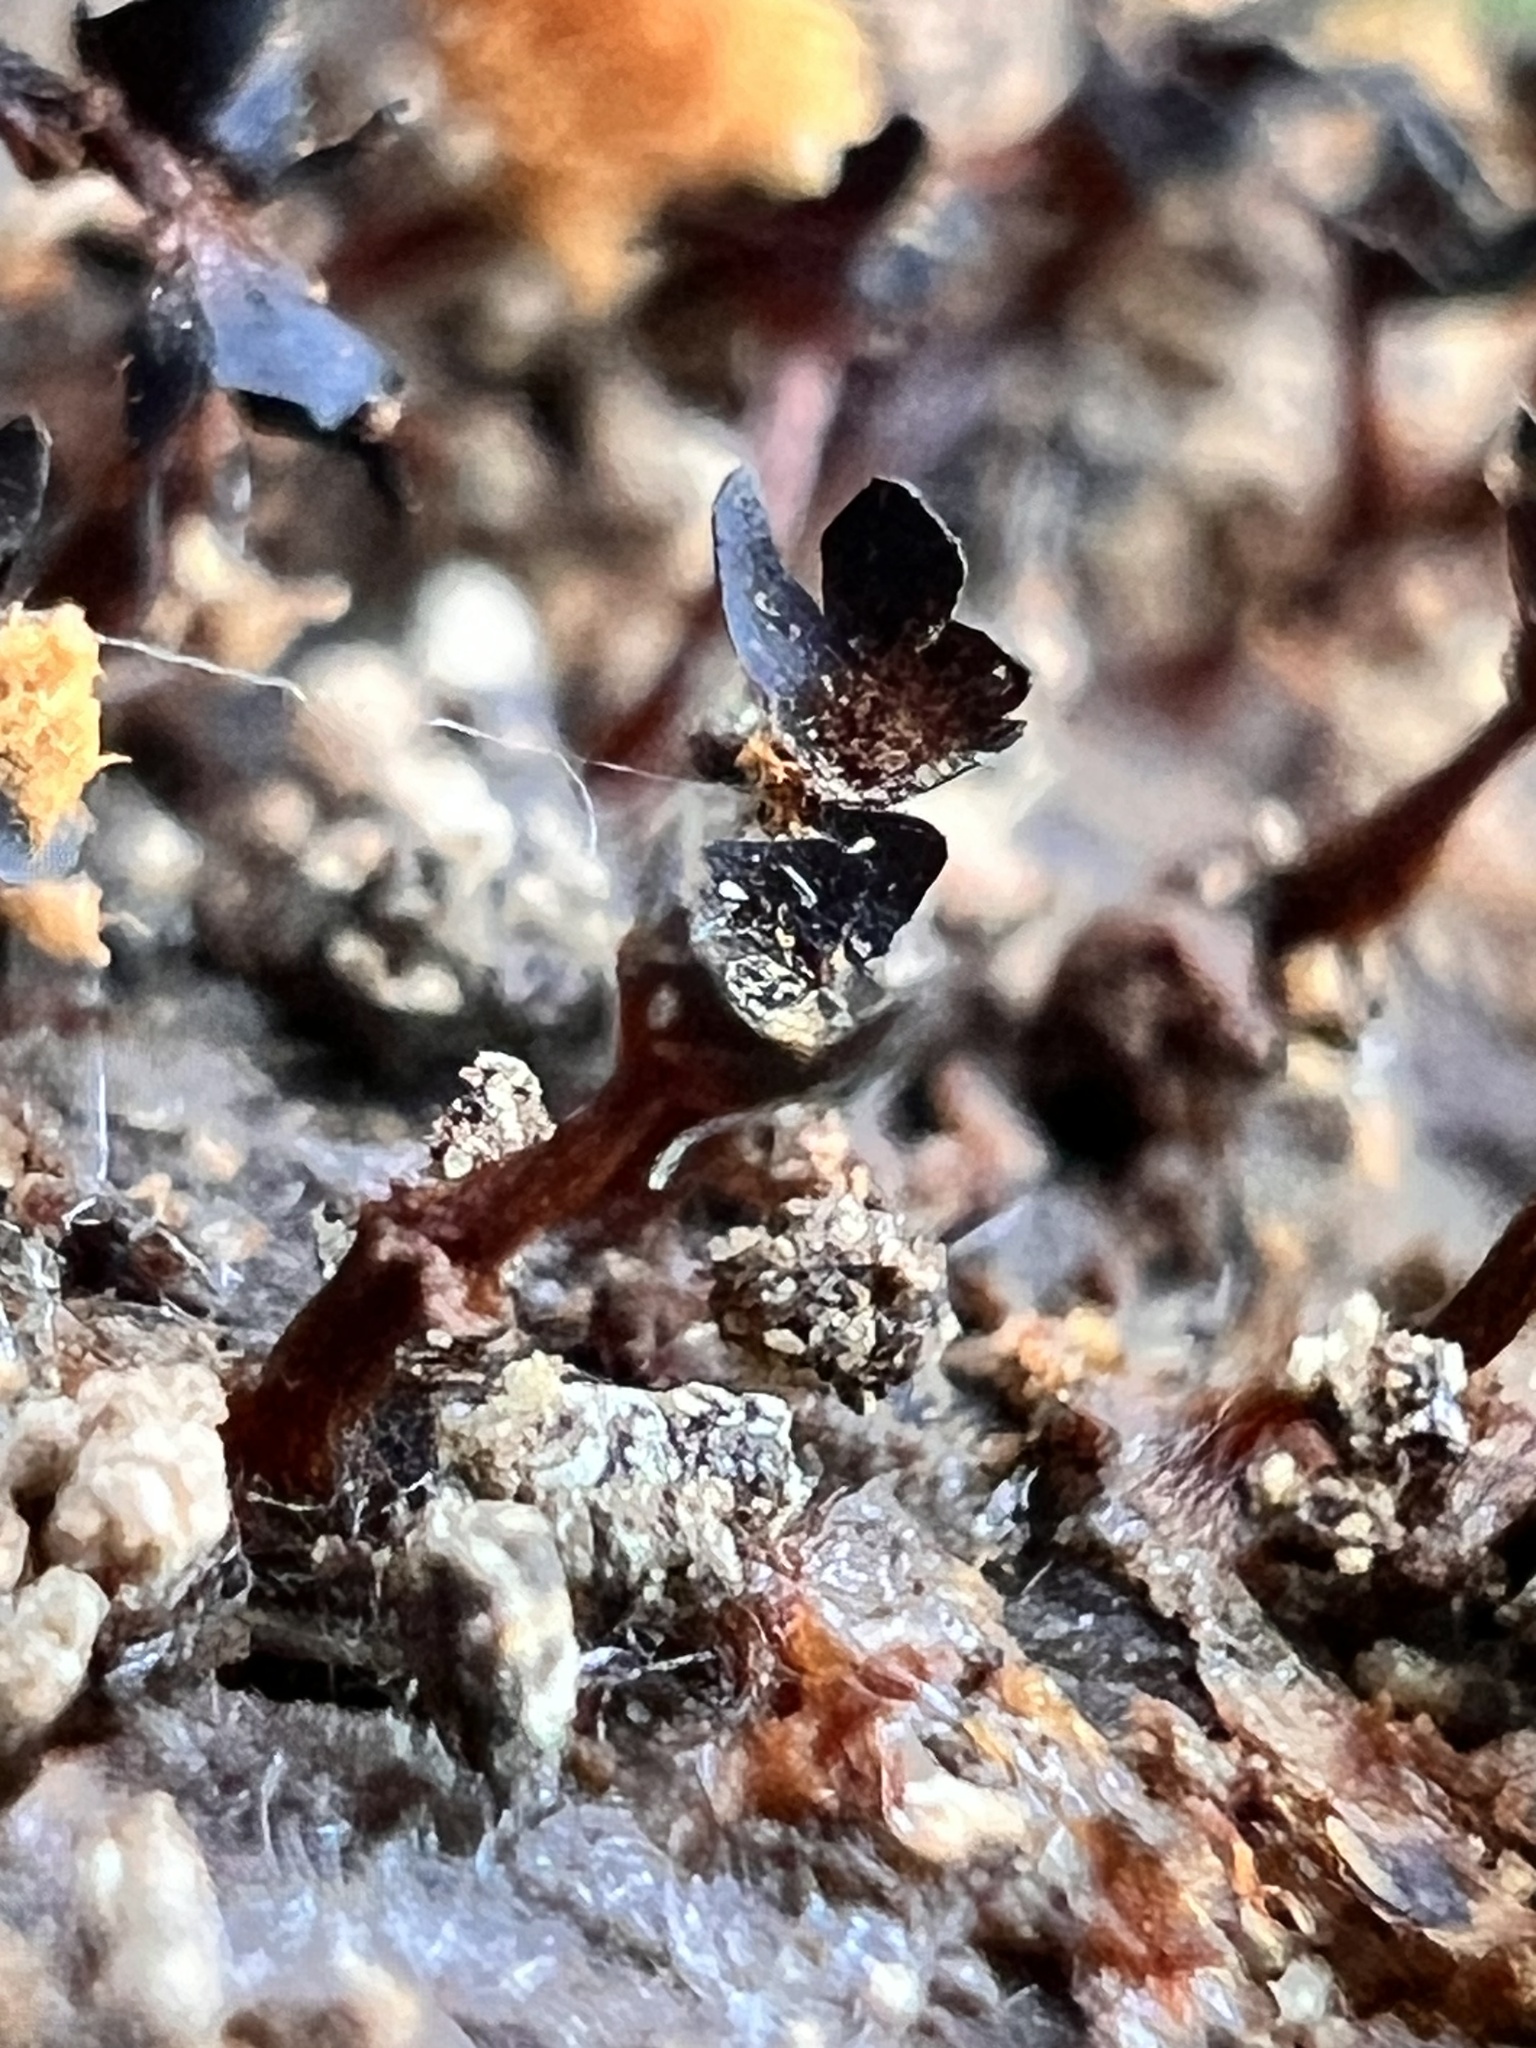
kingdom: Protozoa
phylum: Mycetozoa
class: Myxomycetes
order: Trichiales
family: Trichiaceae
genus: Metatrichia
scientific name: Metatrichia floriformis
